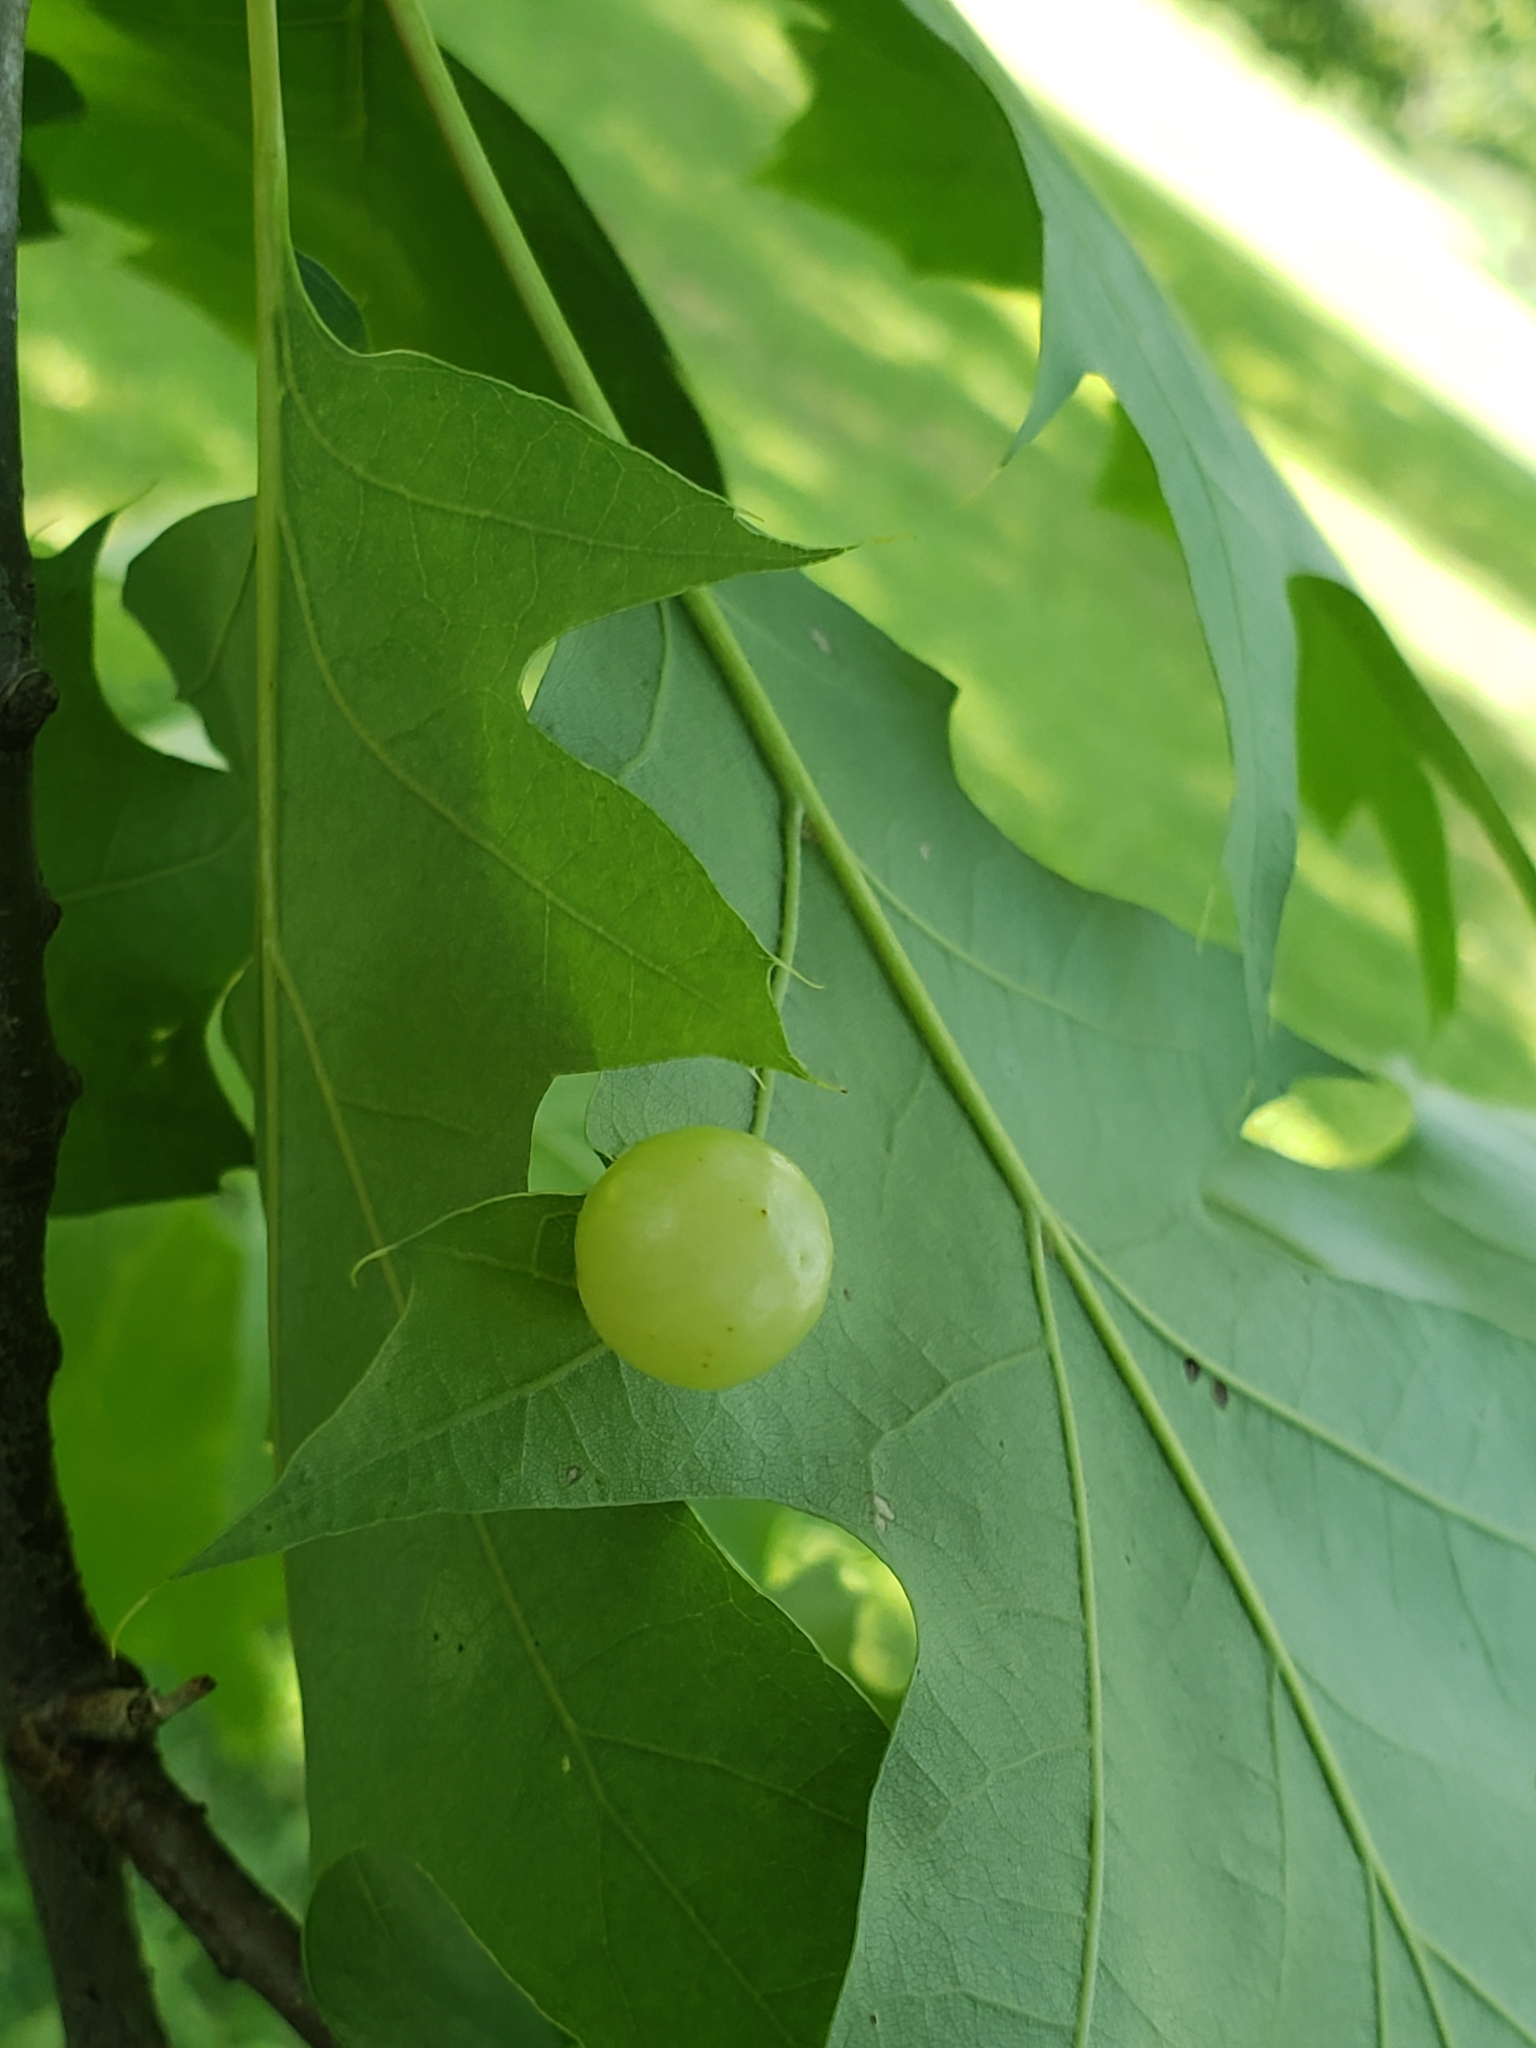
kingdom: Animalia
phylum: Arthropoda
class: Insecta
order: Hymenoptera
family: Cynipidae
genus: Amphibolips
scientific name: Amphibolips
